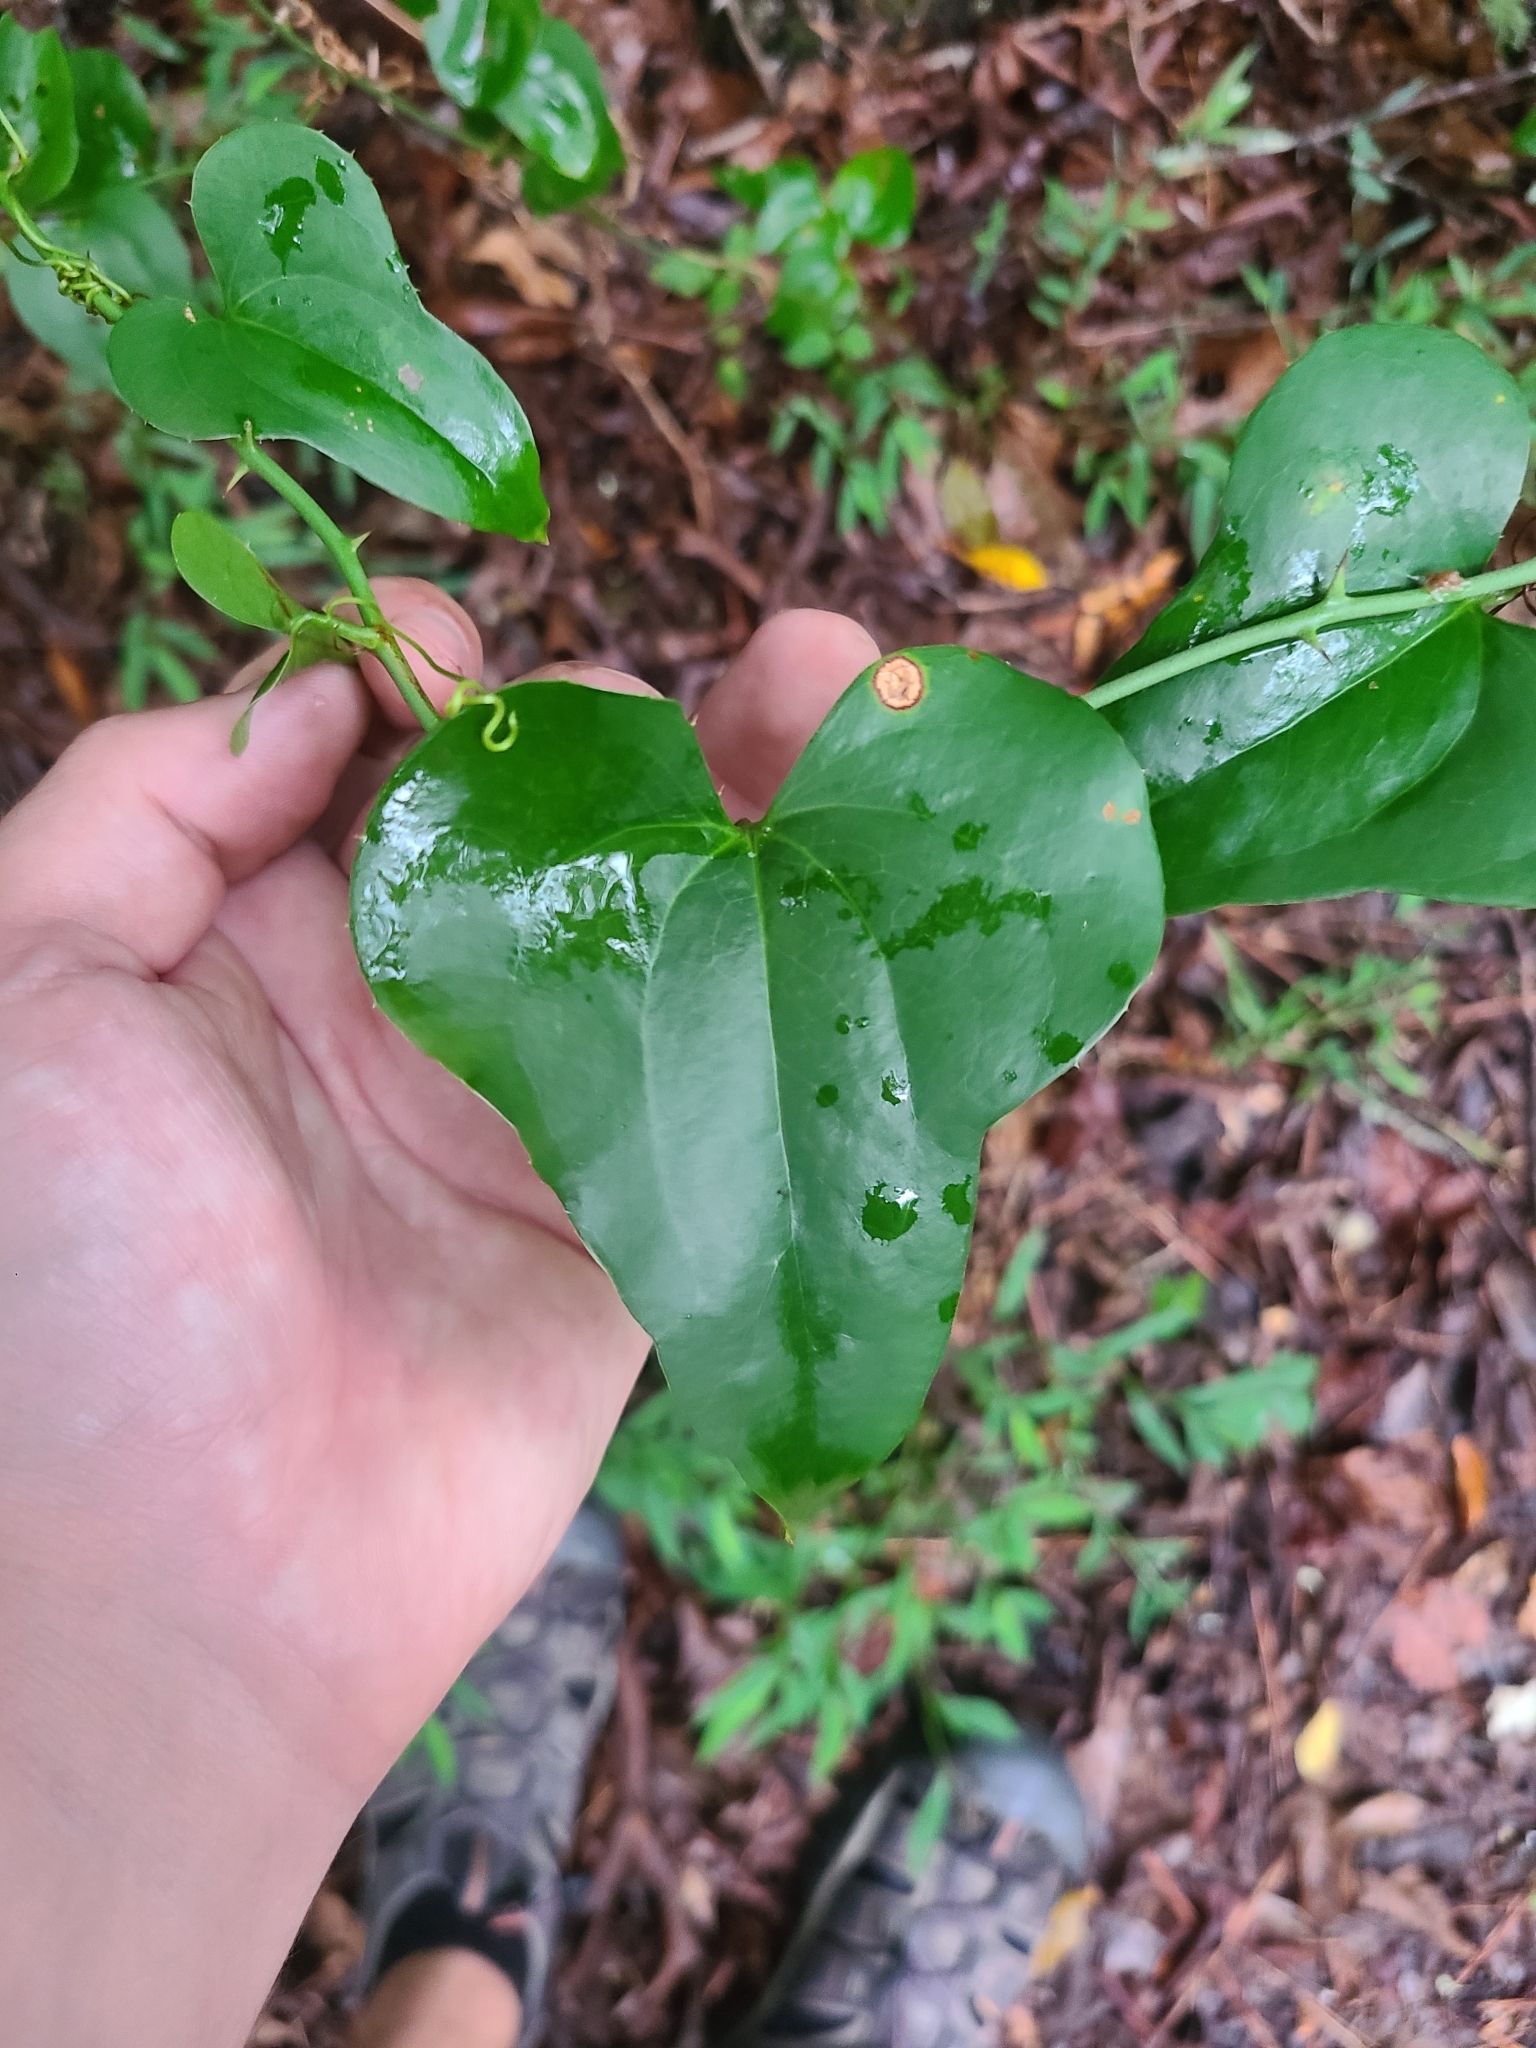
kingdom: Plantae
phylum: Tracheophyta
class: Liliopsida
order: Liliales
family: Smilacaceae
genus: Smilax
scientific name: Smilax bona-nox
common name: Catbrier
